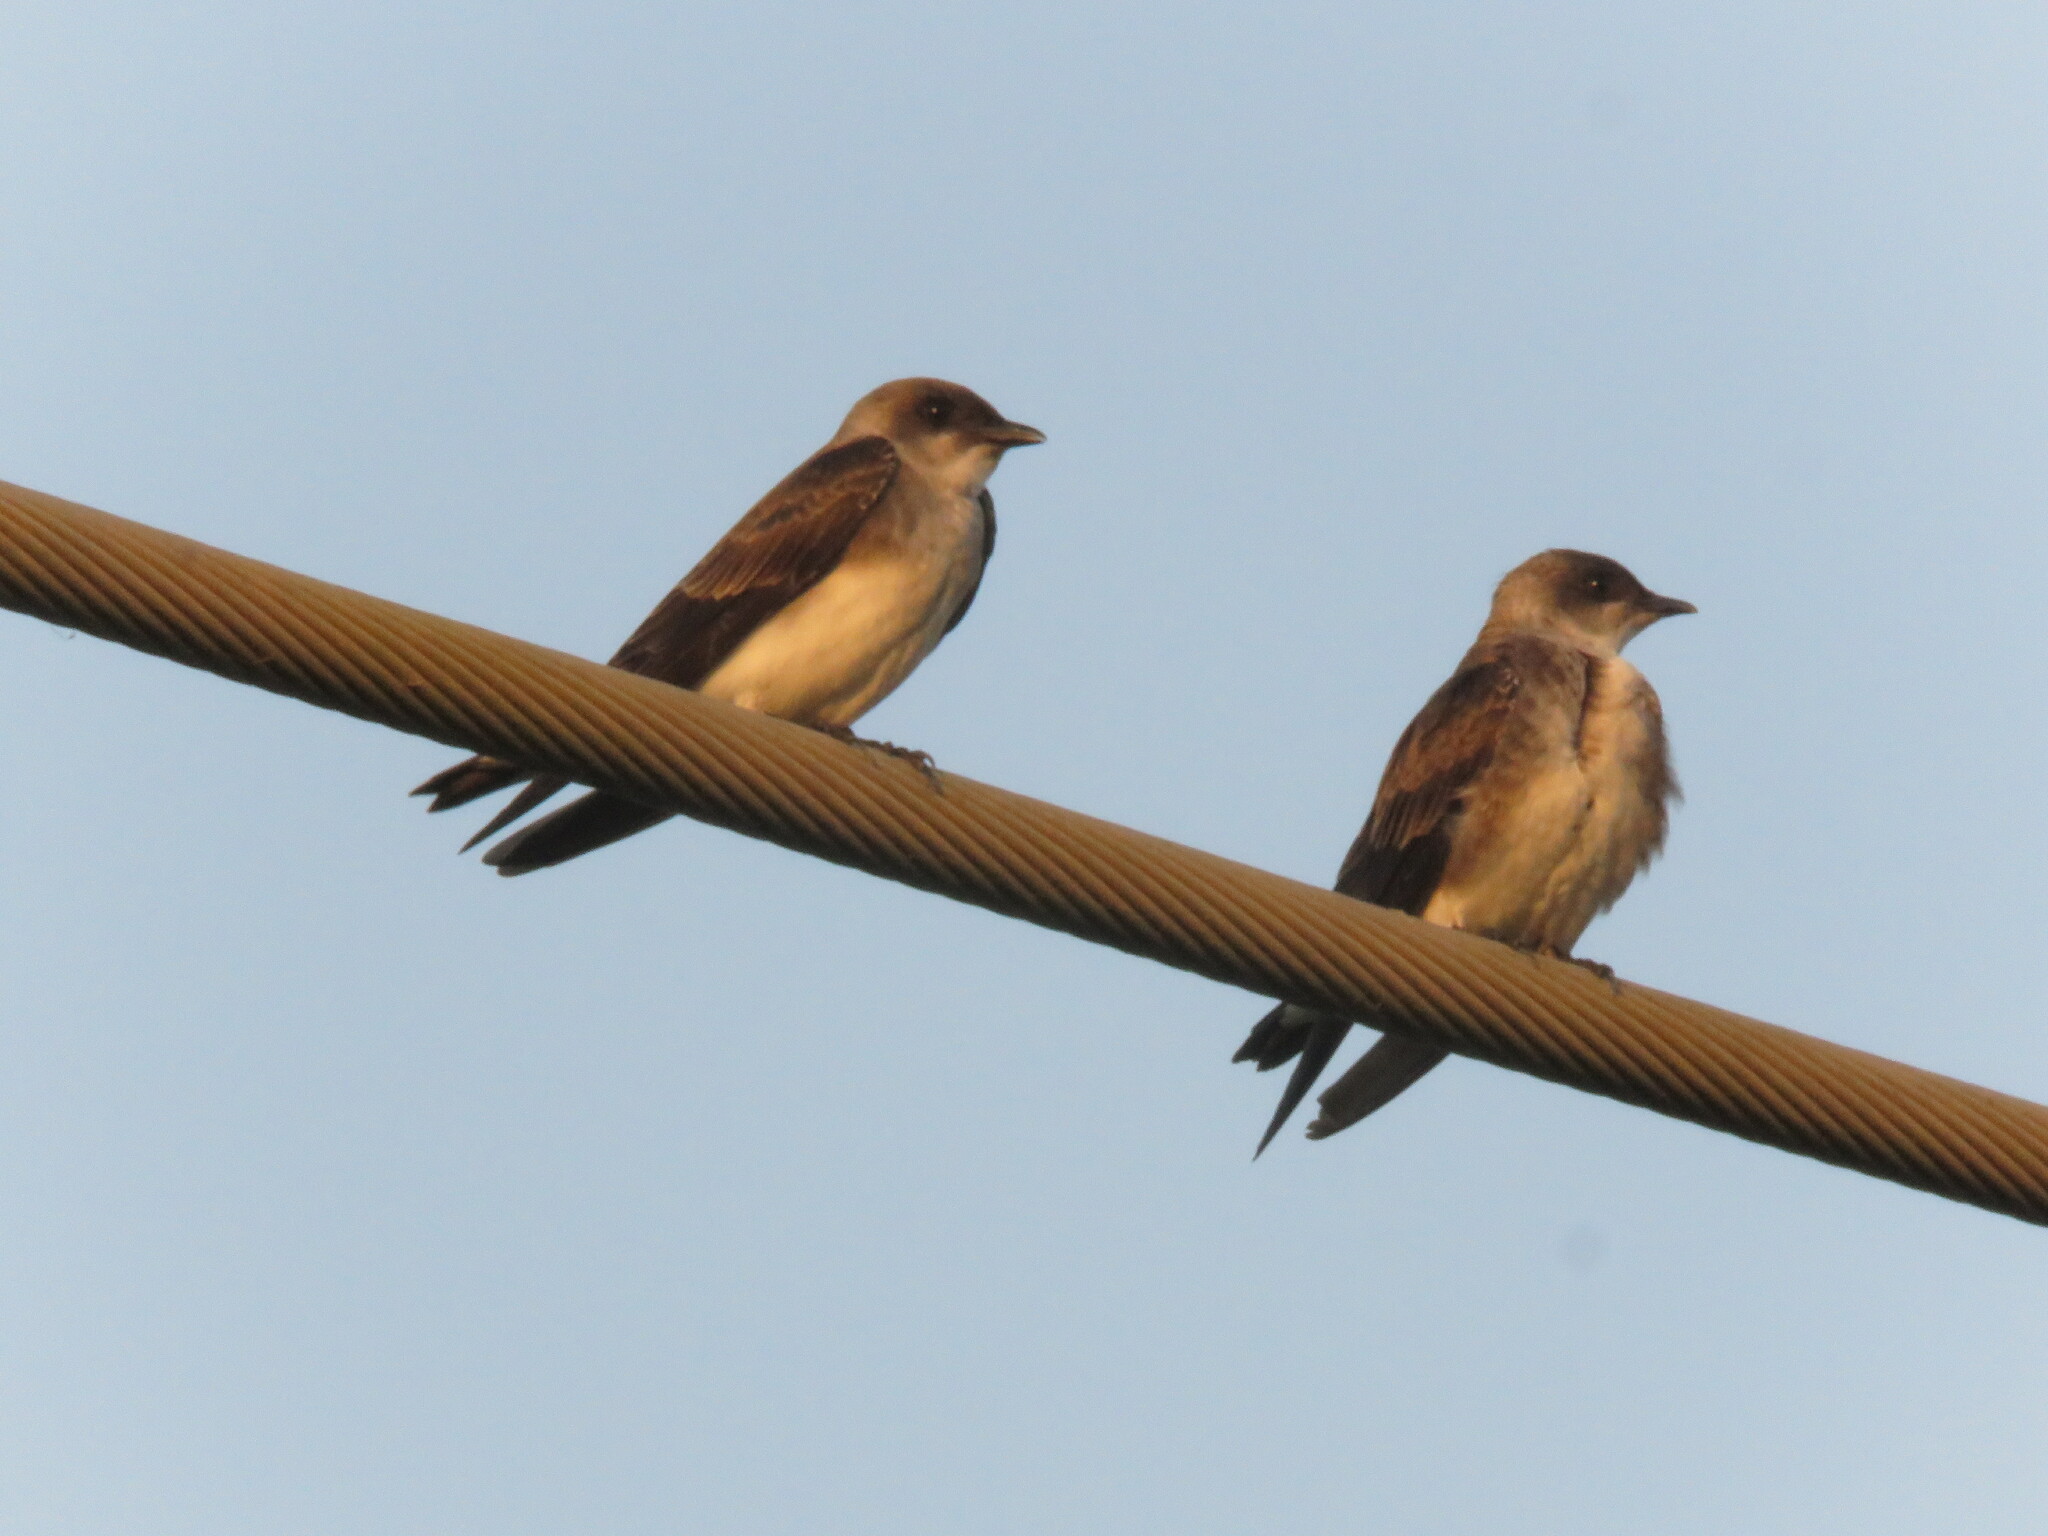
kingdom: Animalia
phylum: Chordata
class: Aves
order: Passeriformes
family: Hirundinidae
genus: Progne
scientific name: Progne tapera
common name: Brown-chested martin
